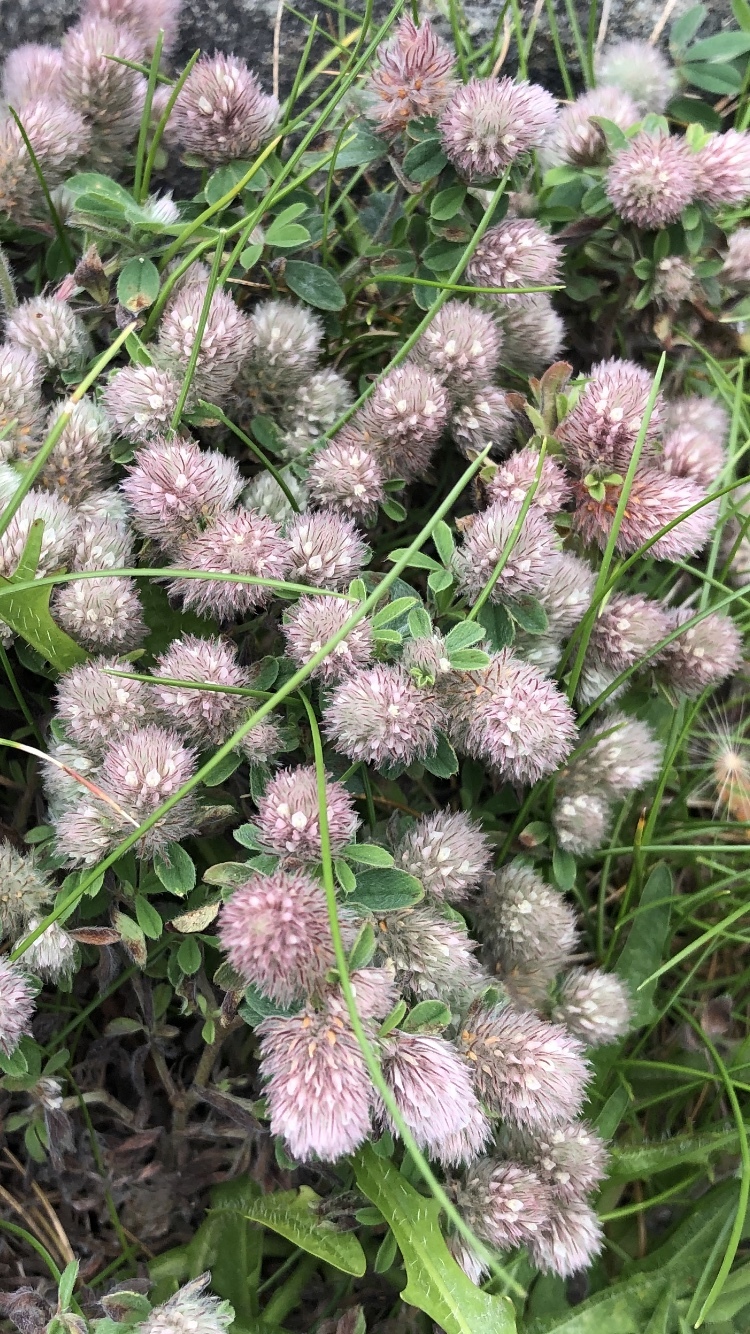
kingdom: Plantae
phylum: Tracheophyta
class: Magnoliopsida
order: Fabales
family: Fabaceae
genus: Trifolium
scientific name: Trifolium arvense
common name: Hare's-foot clover
